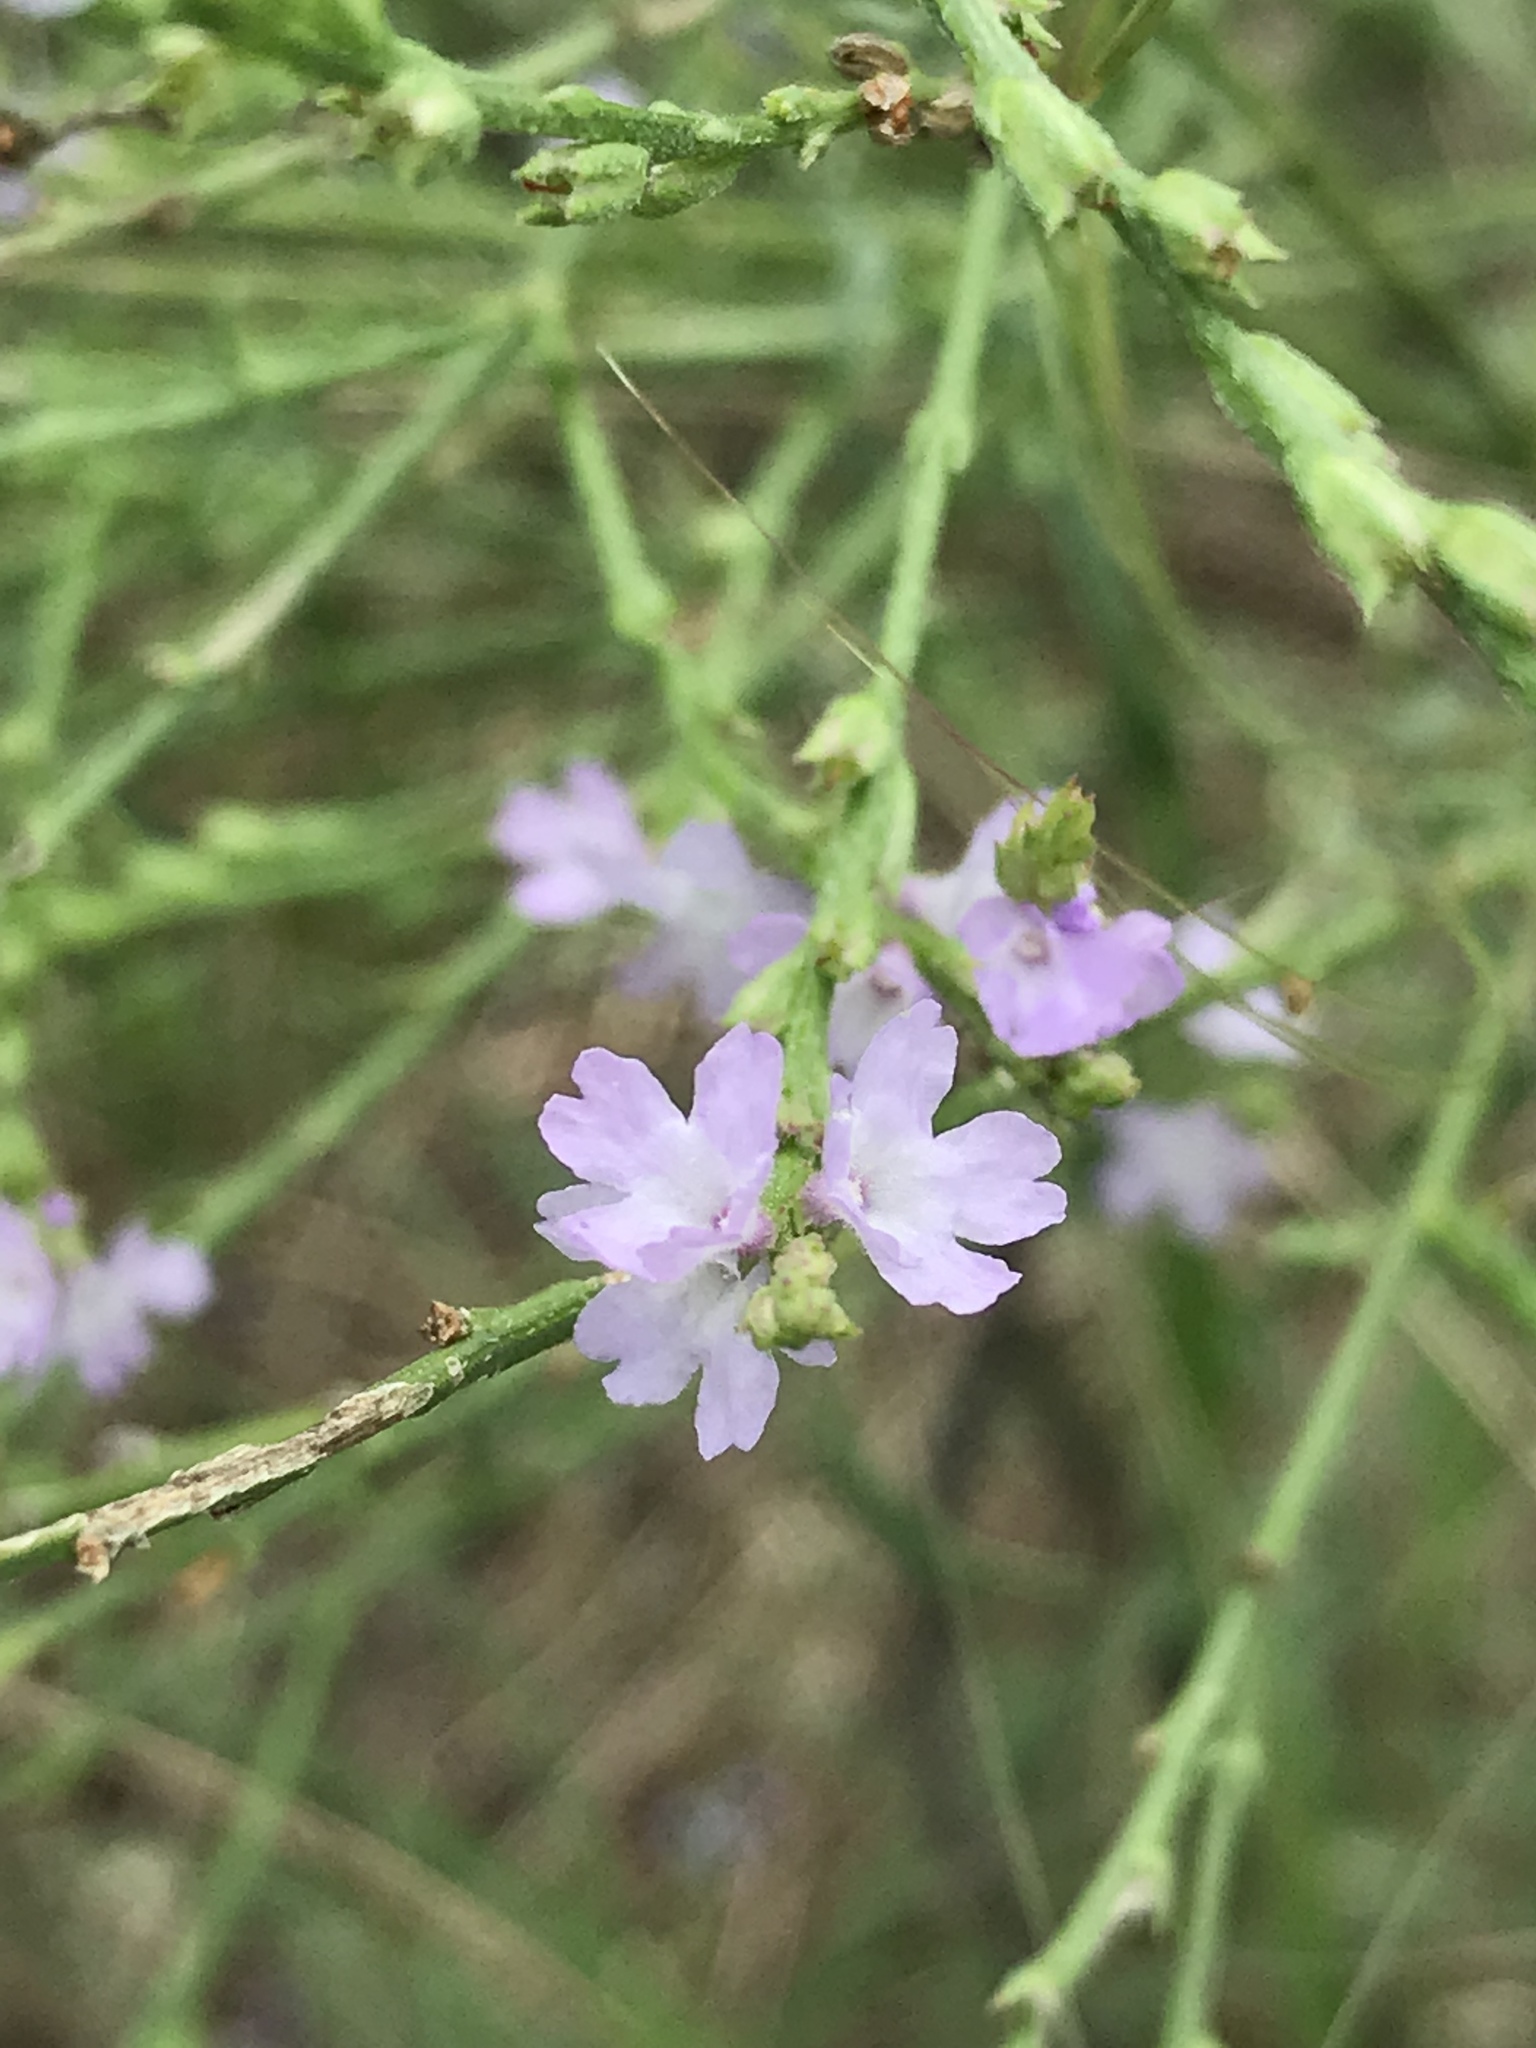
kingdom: Plantae
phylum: Tracheophyta
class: Magnoliopsida
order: Lamiales
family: Verbenaceae
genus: Verbena
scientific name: Verbena halei
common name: Texas vervain
